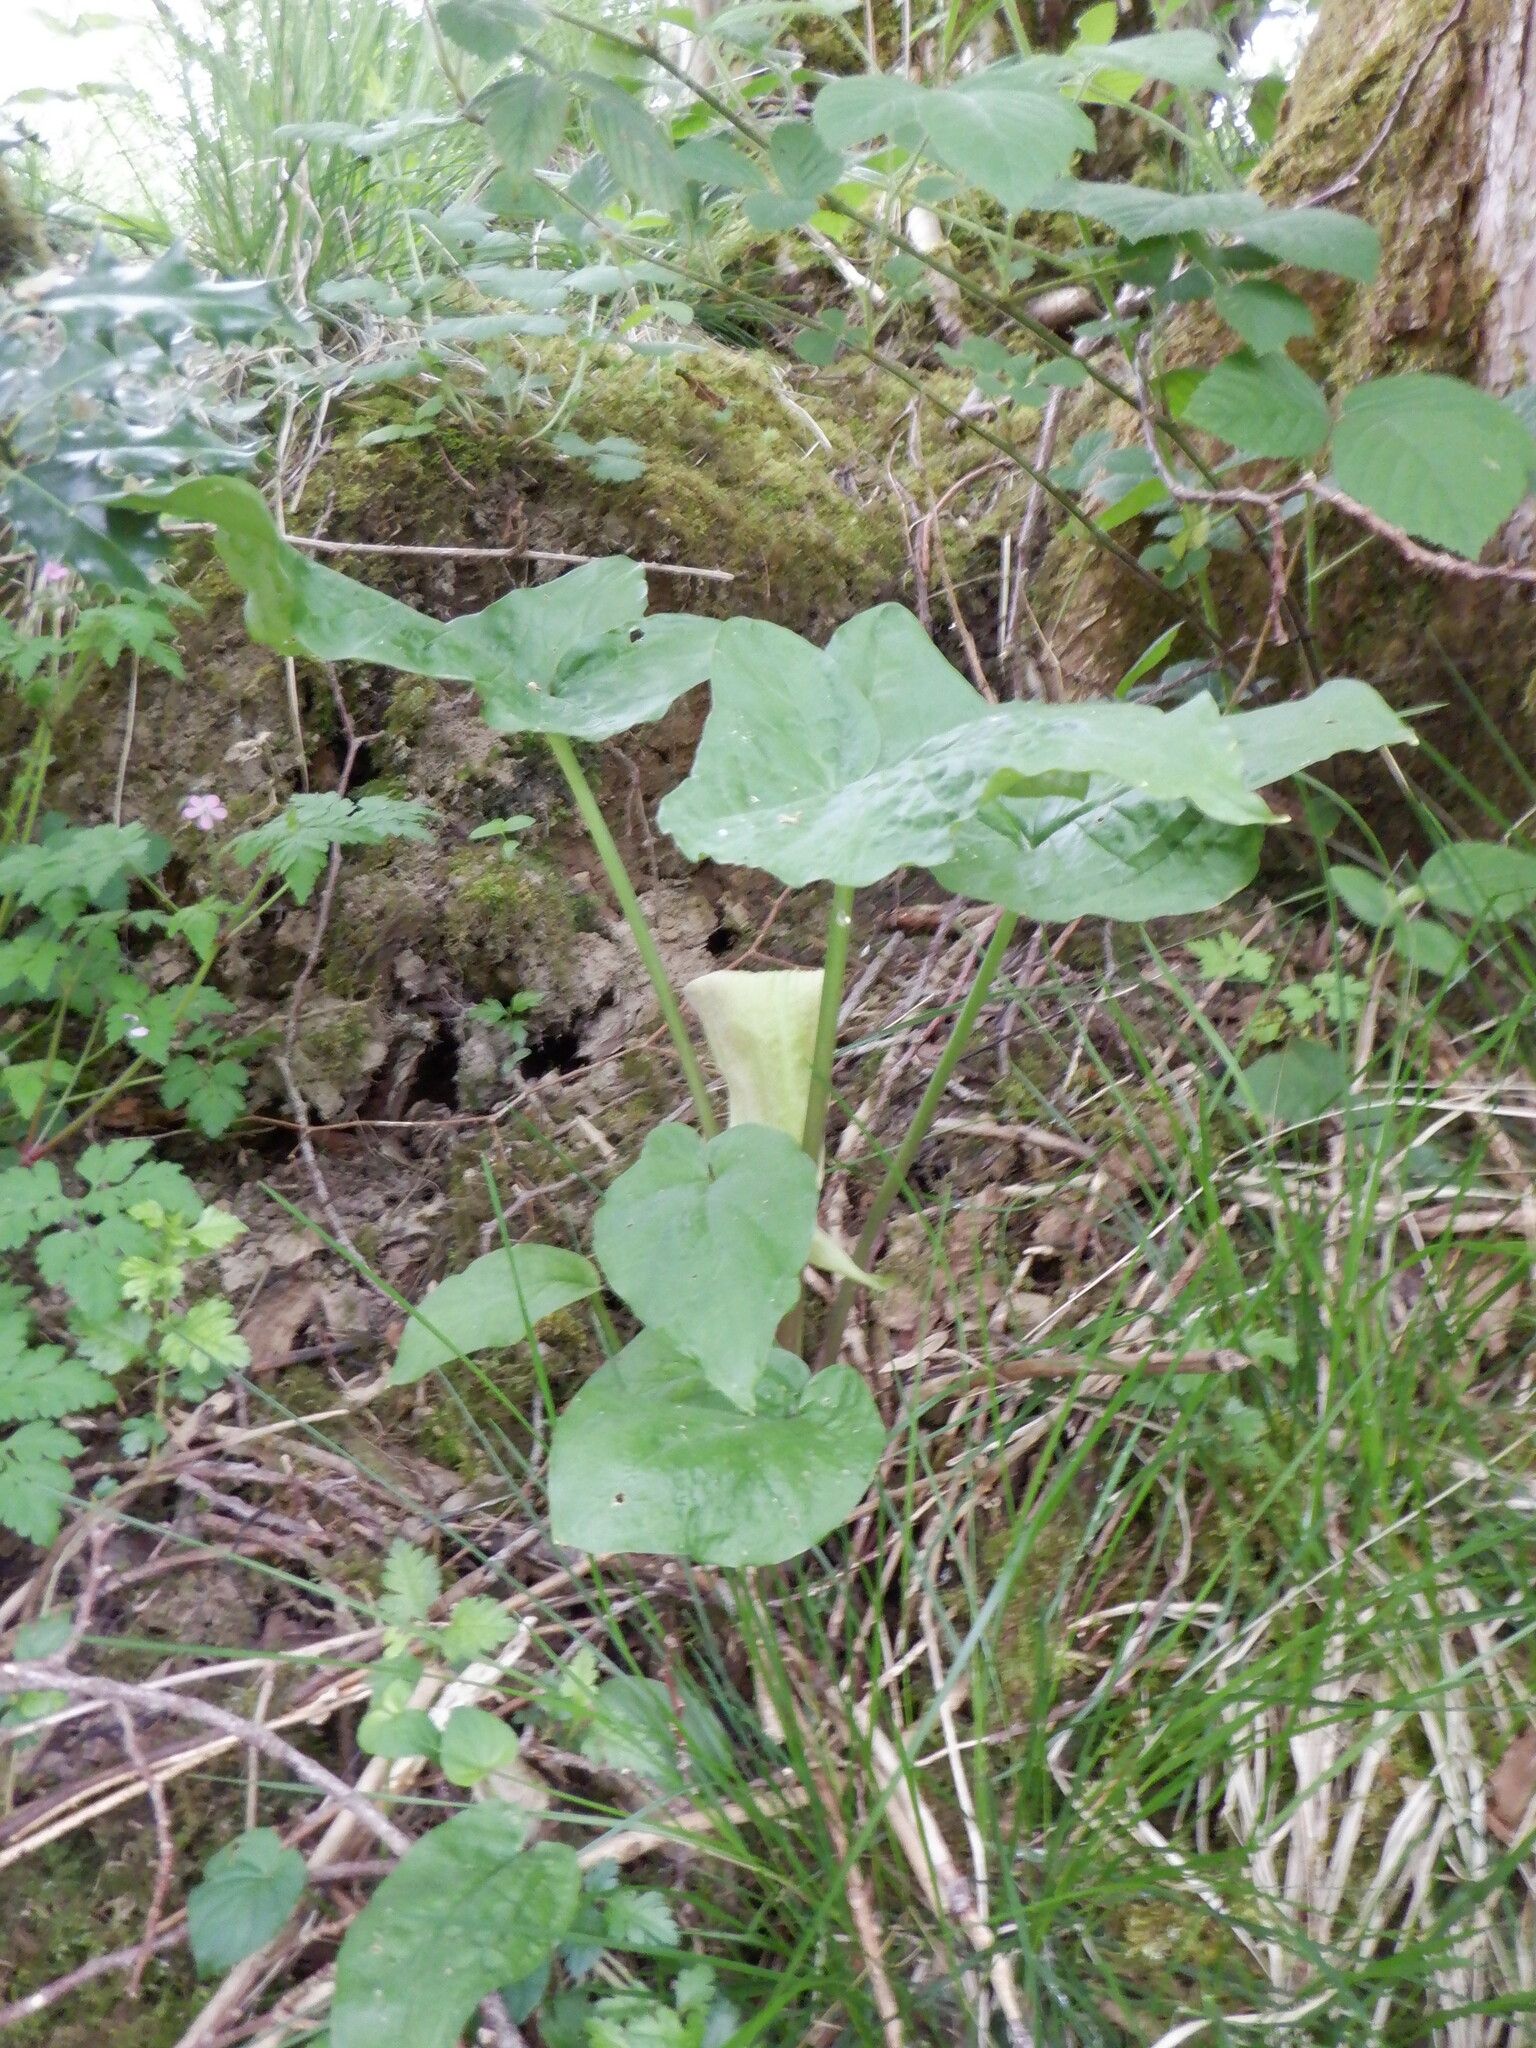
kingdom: Plantae
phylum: Tracheophyta
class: Liliopsida
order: Alismatales
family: Araceae
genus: Arum
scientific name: Arum maculatum
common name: Lords-and-ladies
